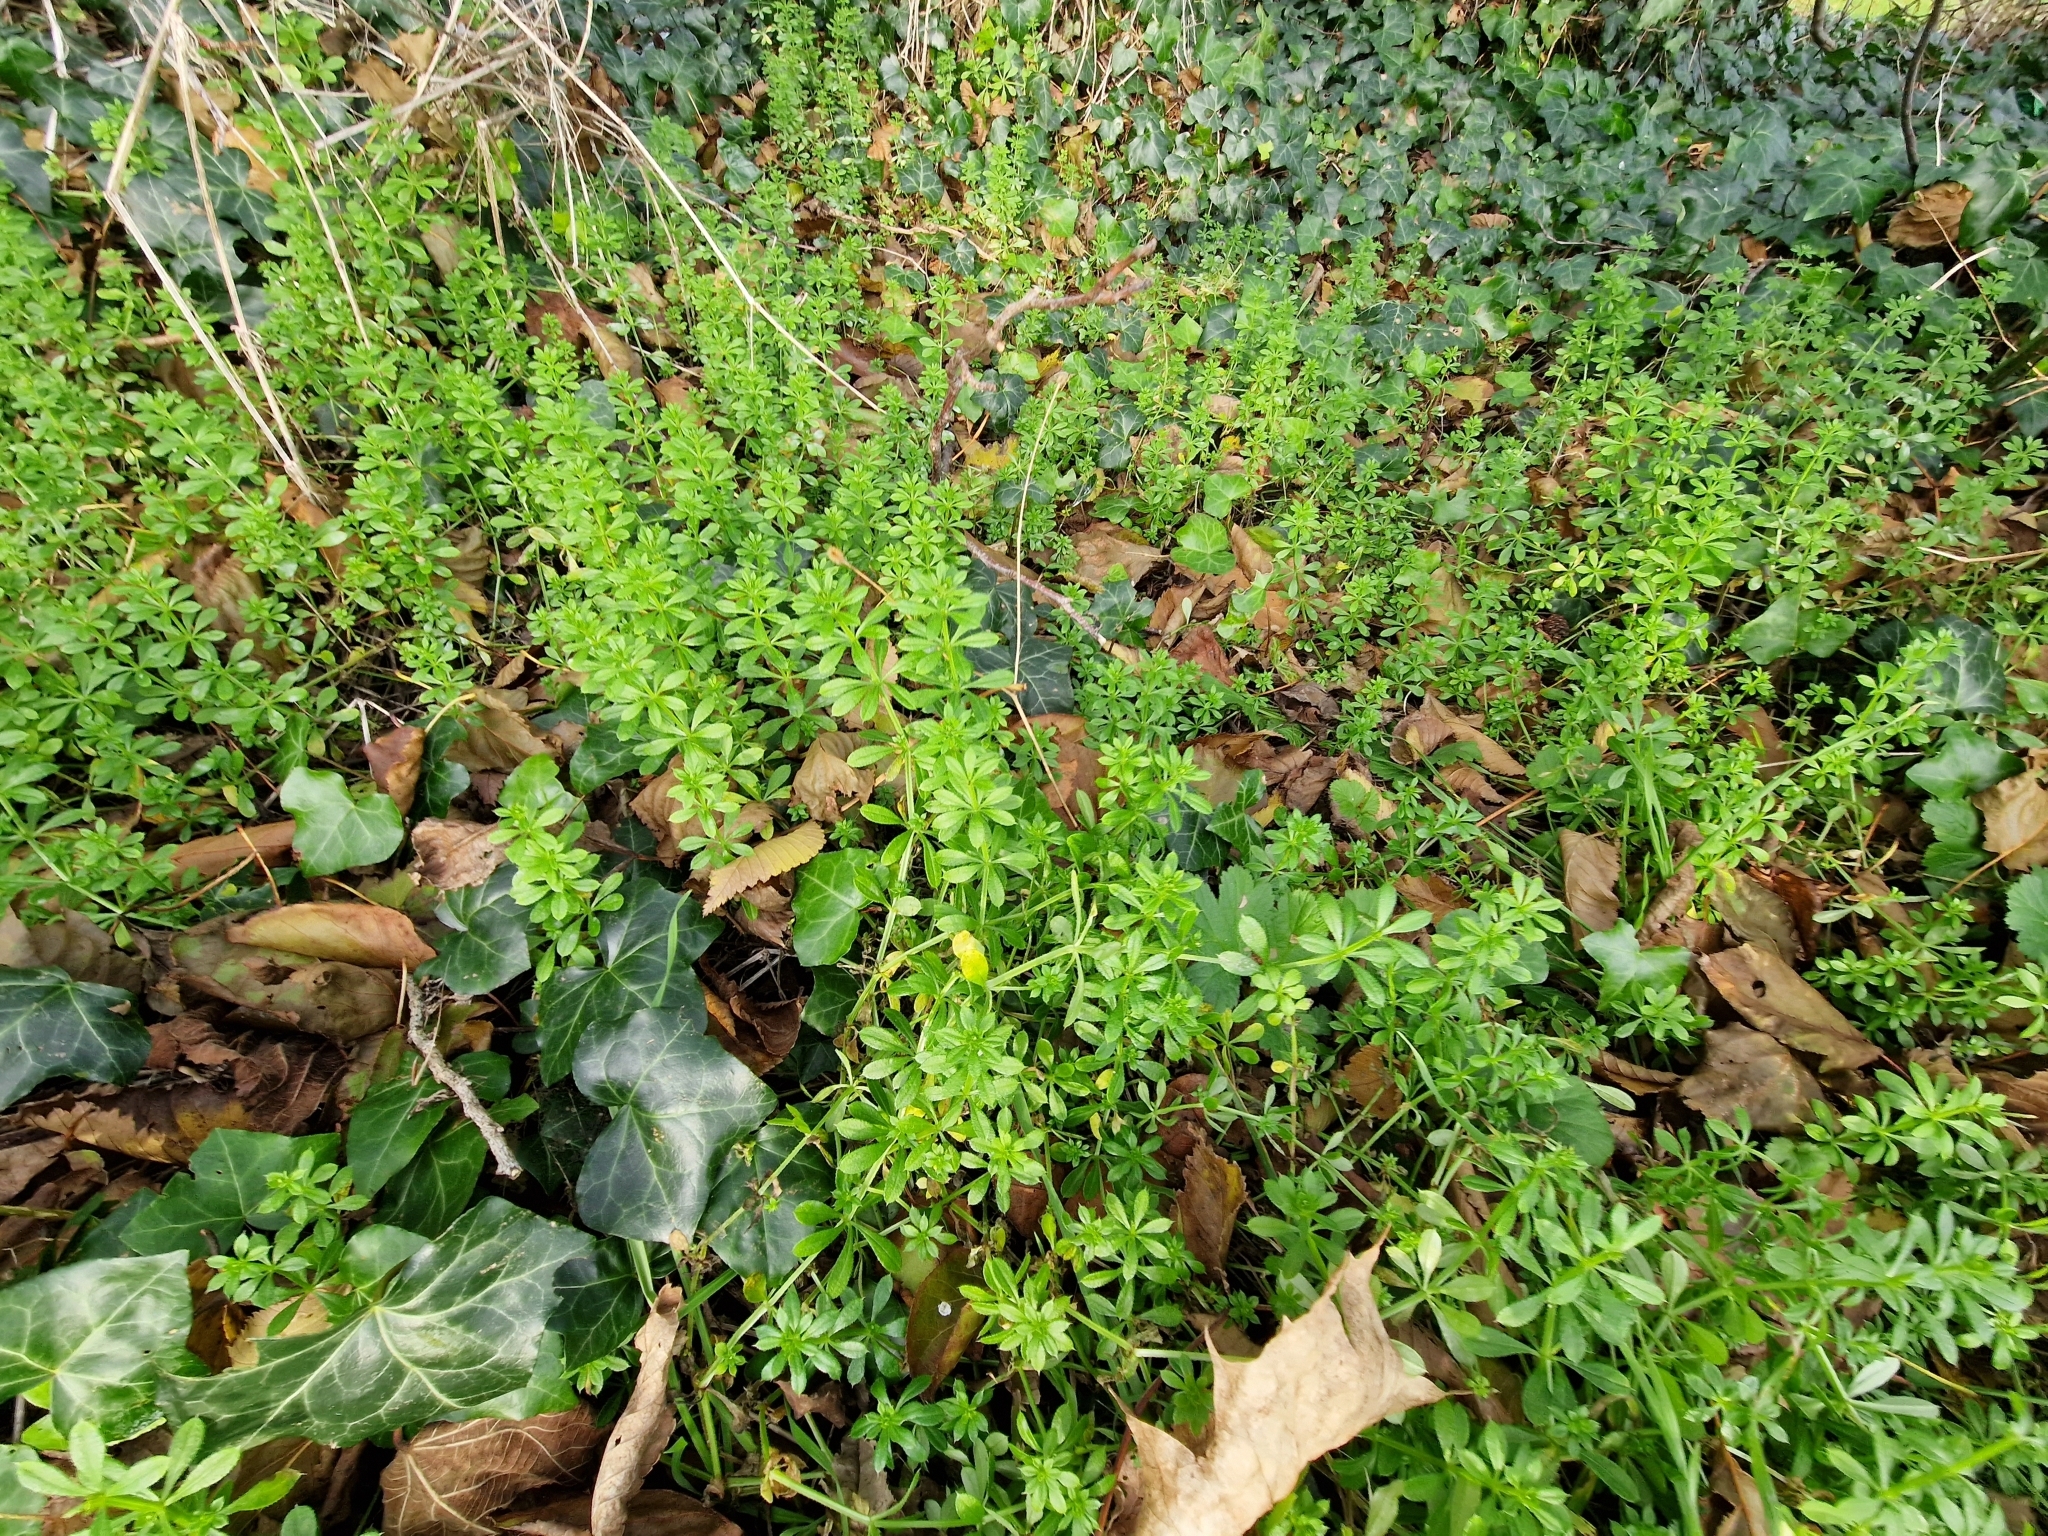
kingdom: Plantae
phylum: Tracheophyta
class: Magnoliopsida
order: Gentianales
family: Rubiaceae
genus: Galium
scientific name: Galium aparine
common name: Cleavers
